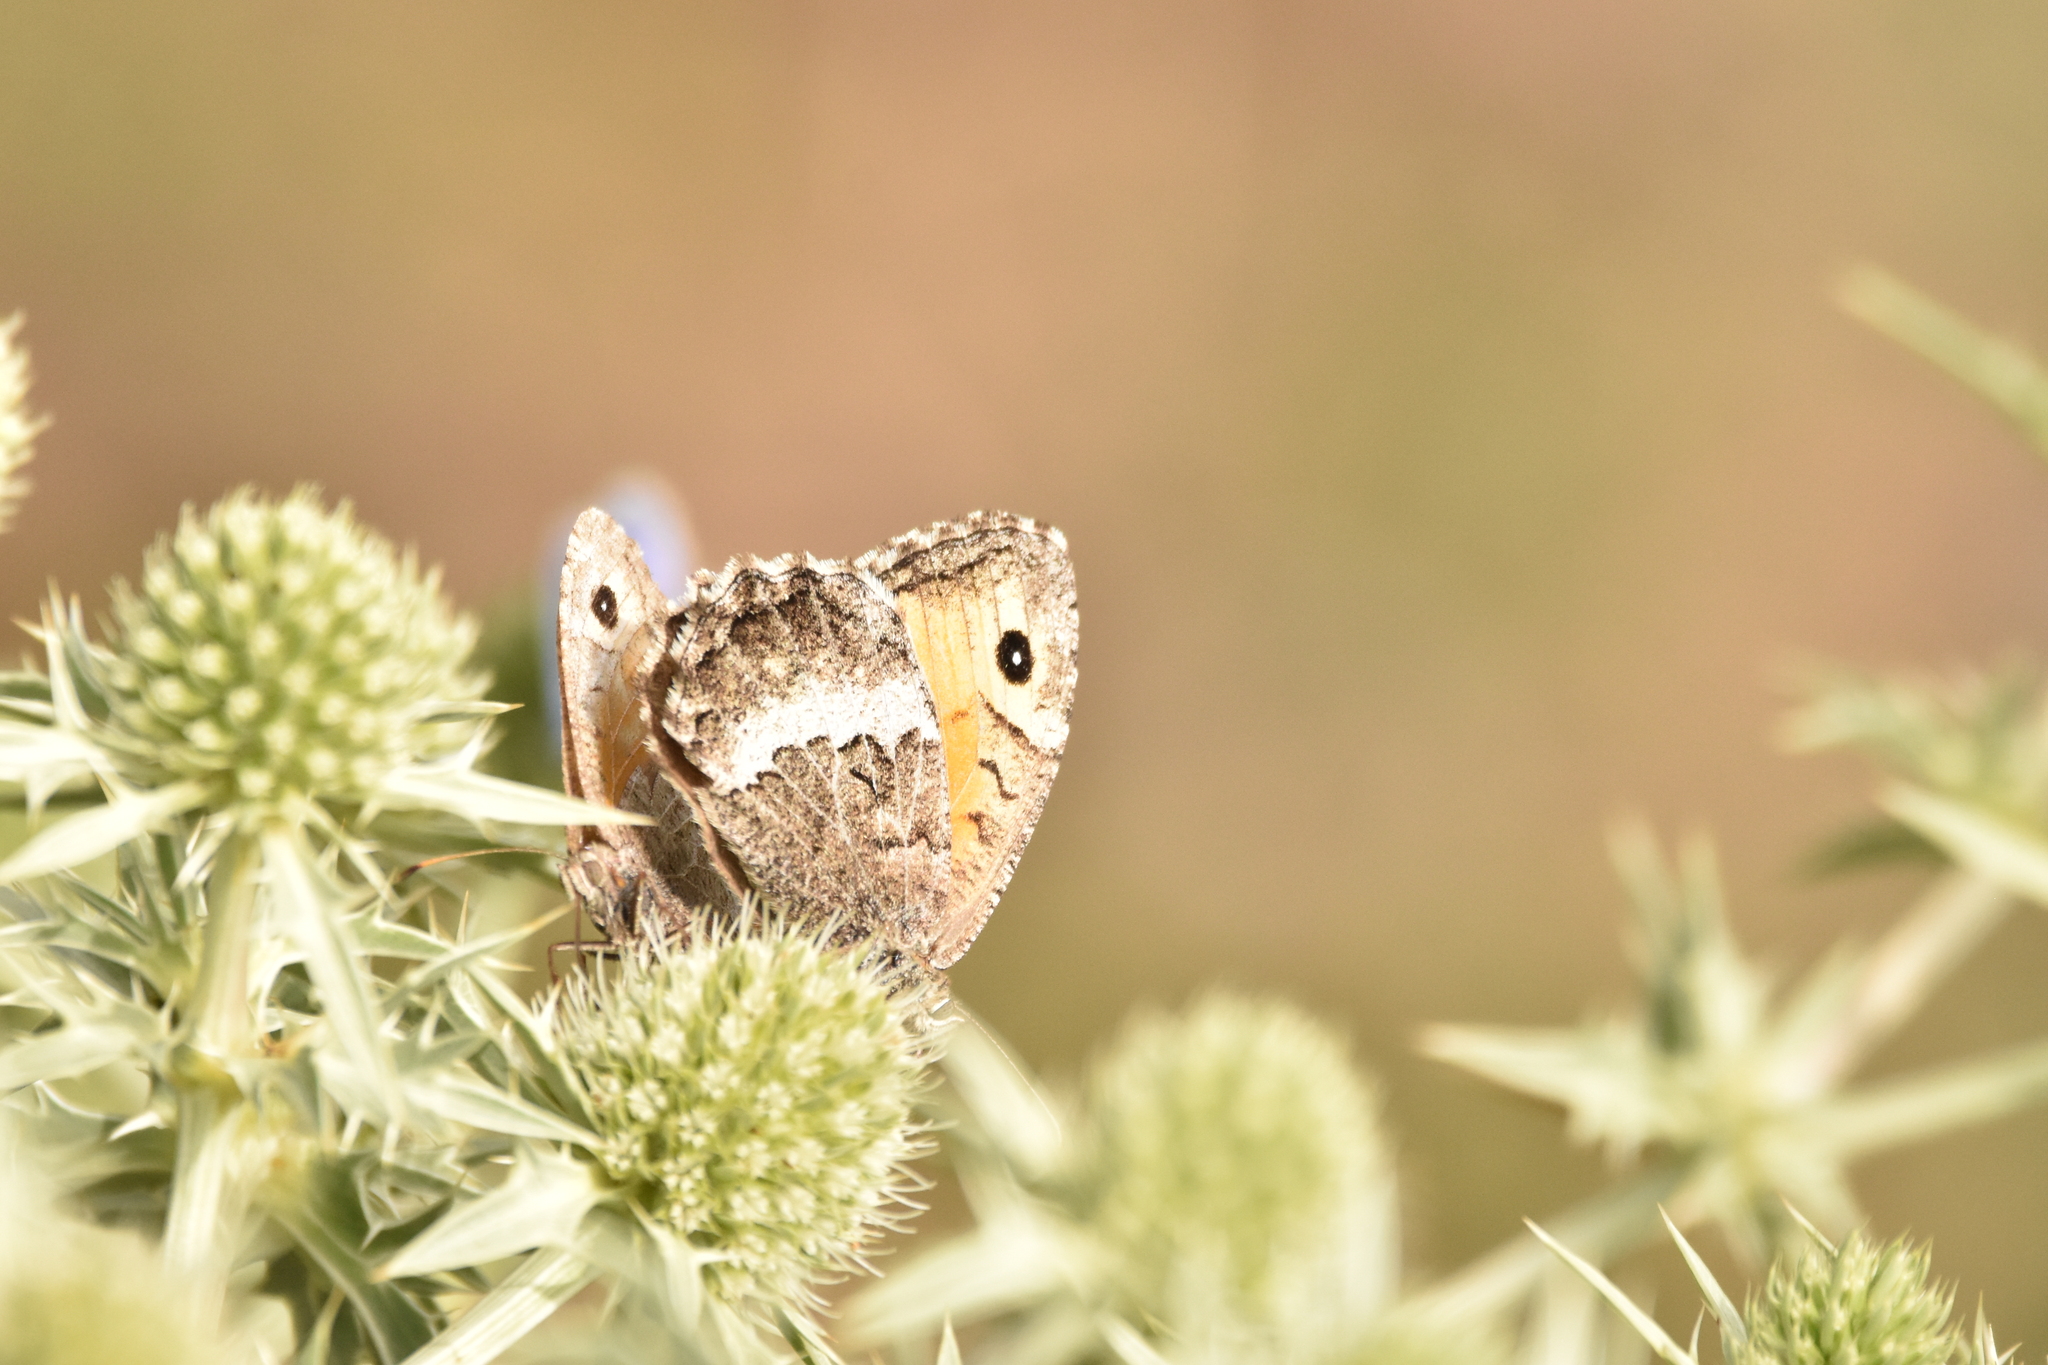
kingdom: Animalia
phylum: Arthropoda
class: Insecta
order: Lepidoptera
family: Nymphalidae
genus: Arethusana
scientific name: Arethusana arethusa
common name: False grayling
